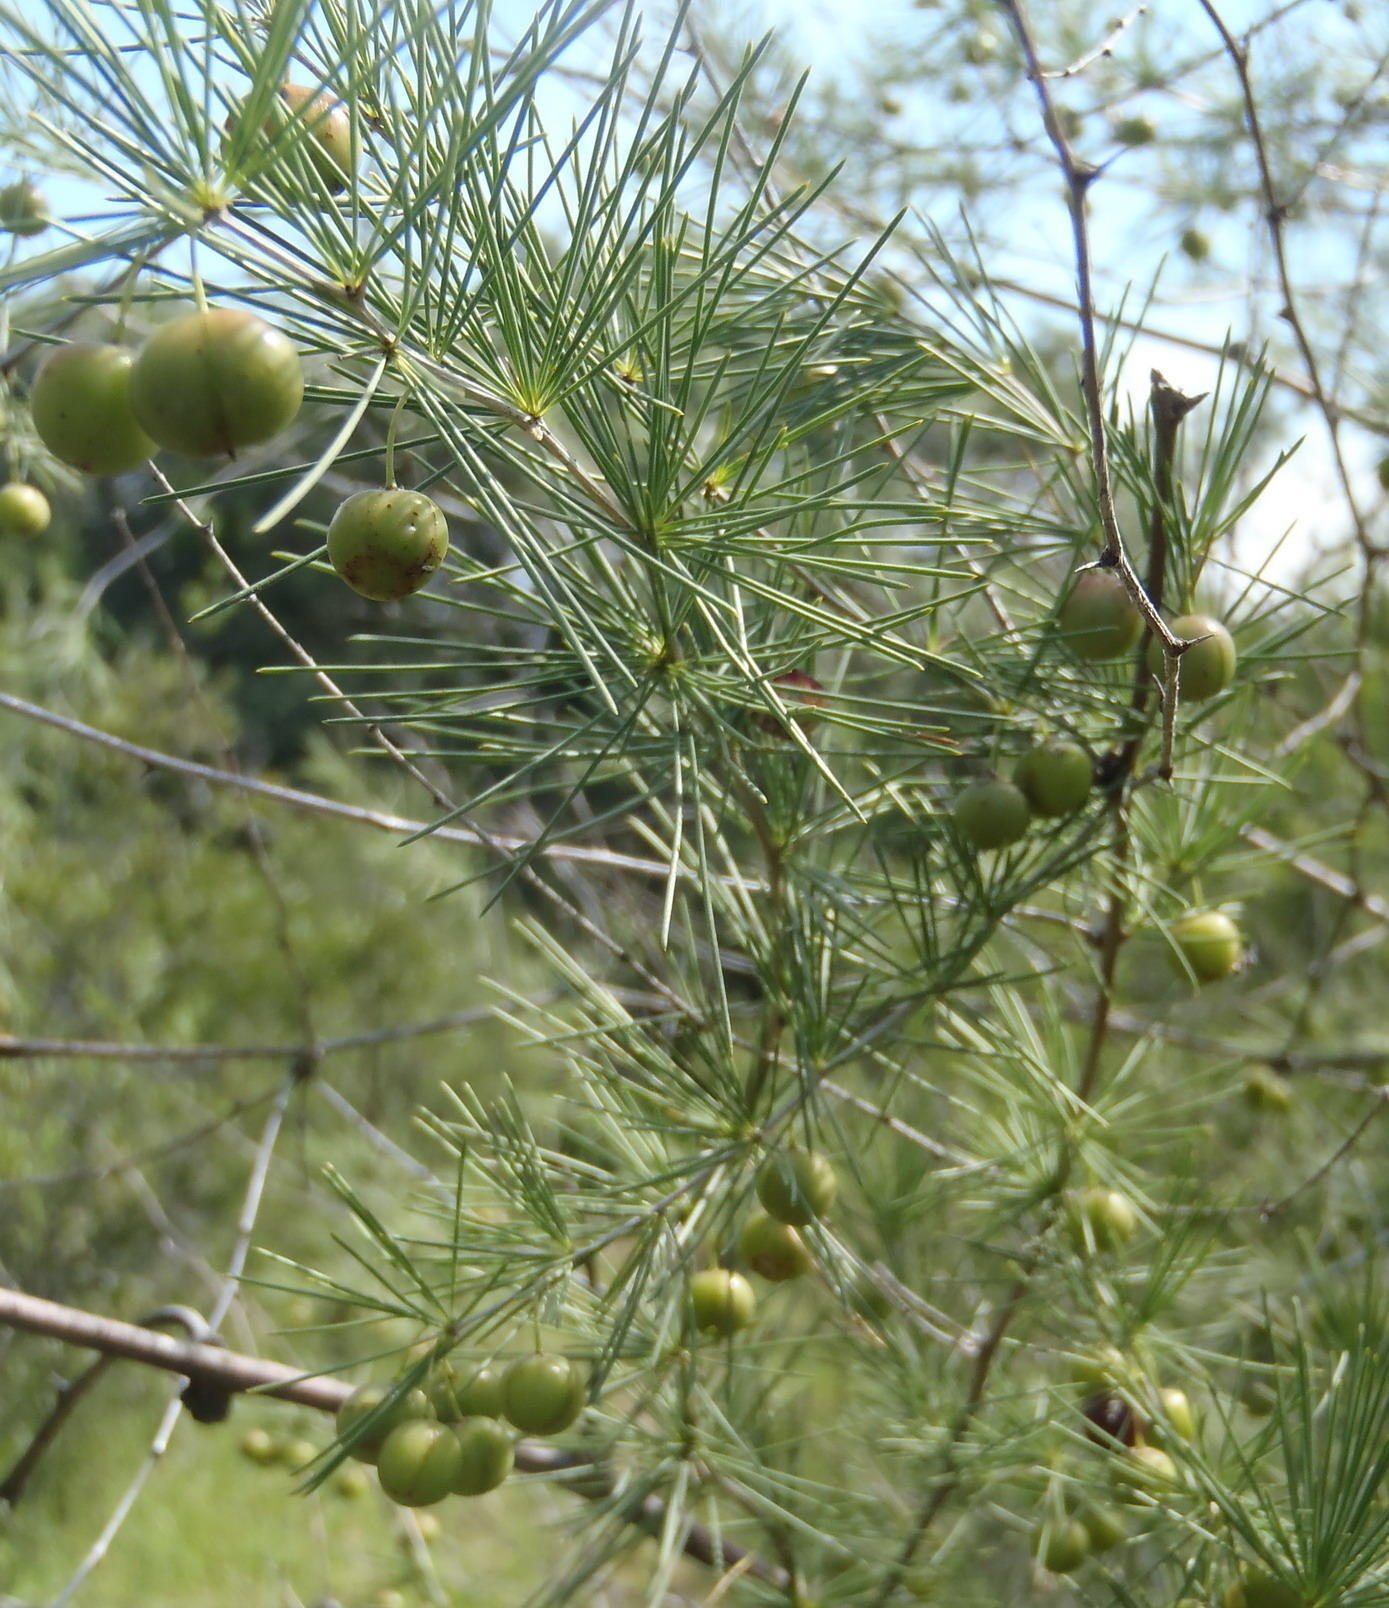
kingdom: Plantae
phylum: Tracheophyta
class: Liliopsida
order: Asparagales
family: Asparagaceae
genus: Asparagus
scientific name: Asparagus laricinus
